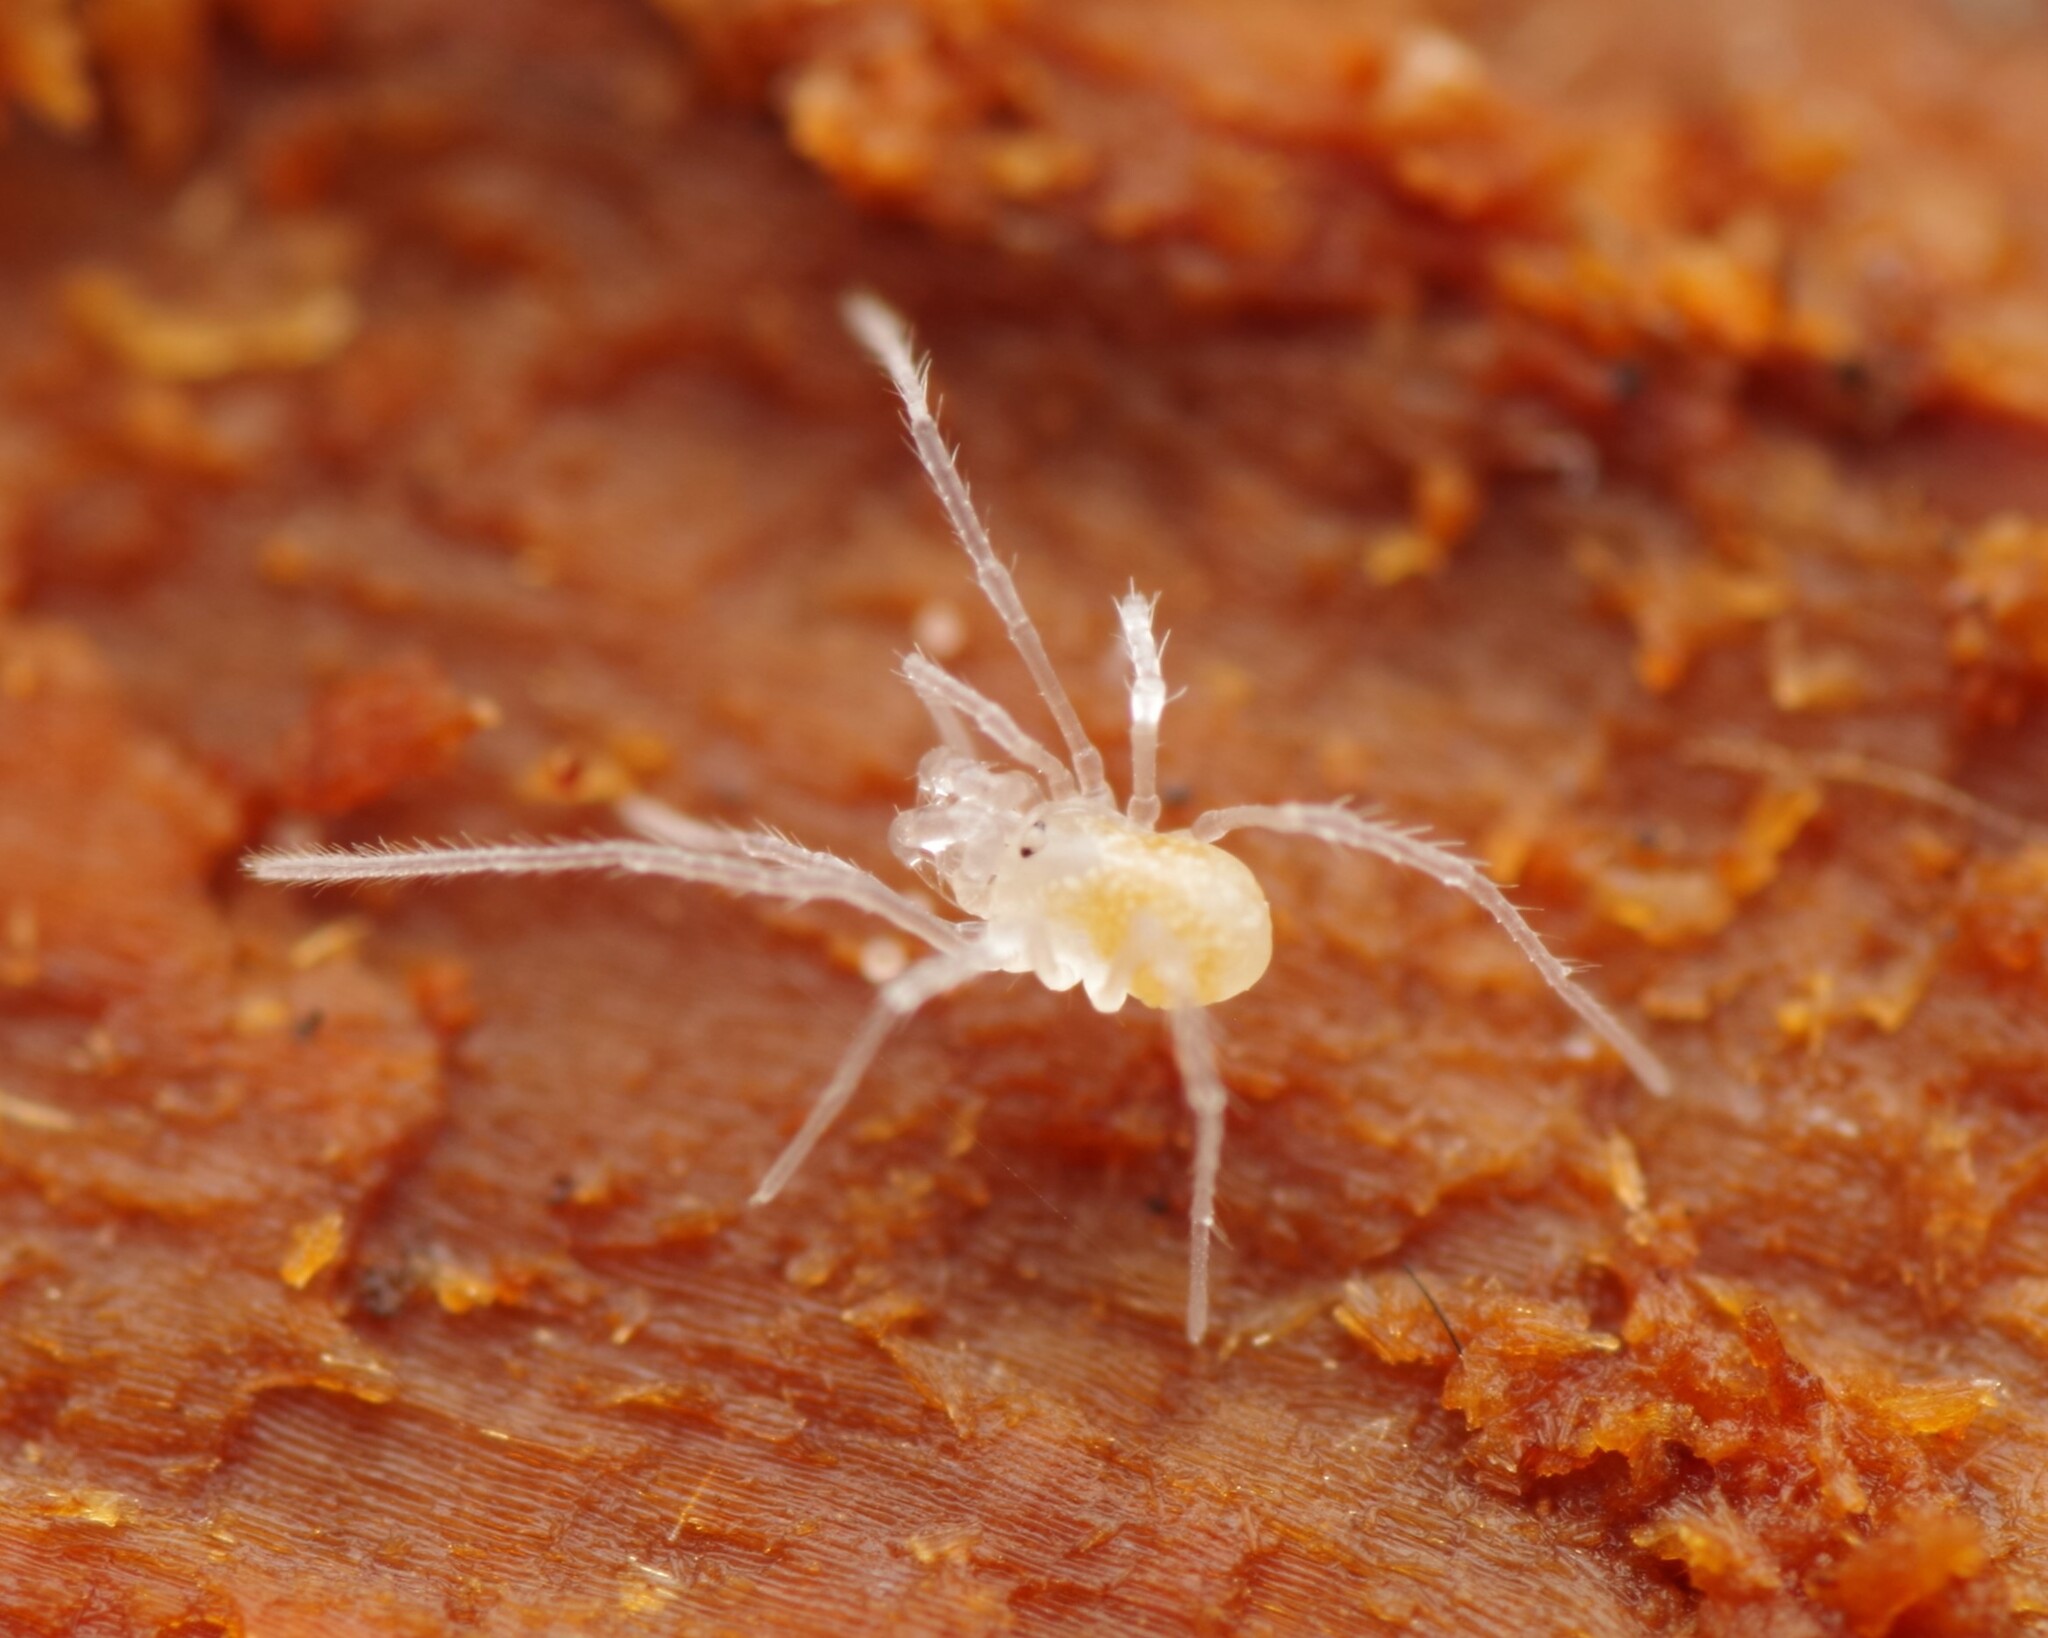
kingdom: Animalia
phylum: Arthropoda
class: Arachnida
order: Opiliones
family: Cladonychiidae
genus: Holoscotolemon
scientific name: Holoscotolemon querilhaci
